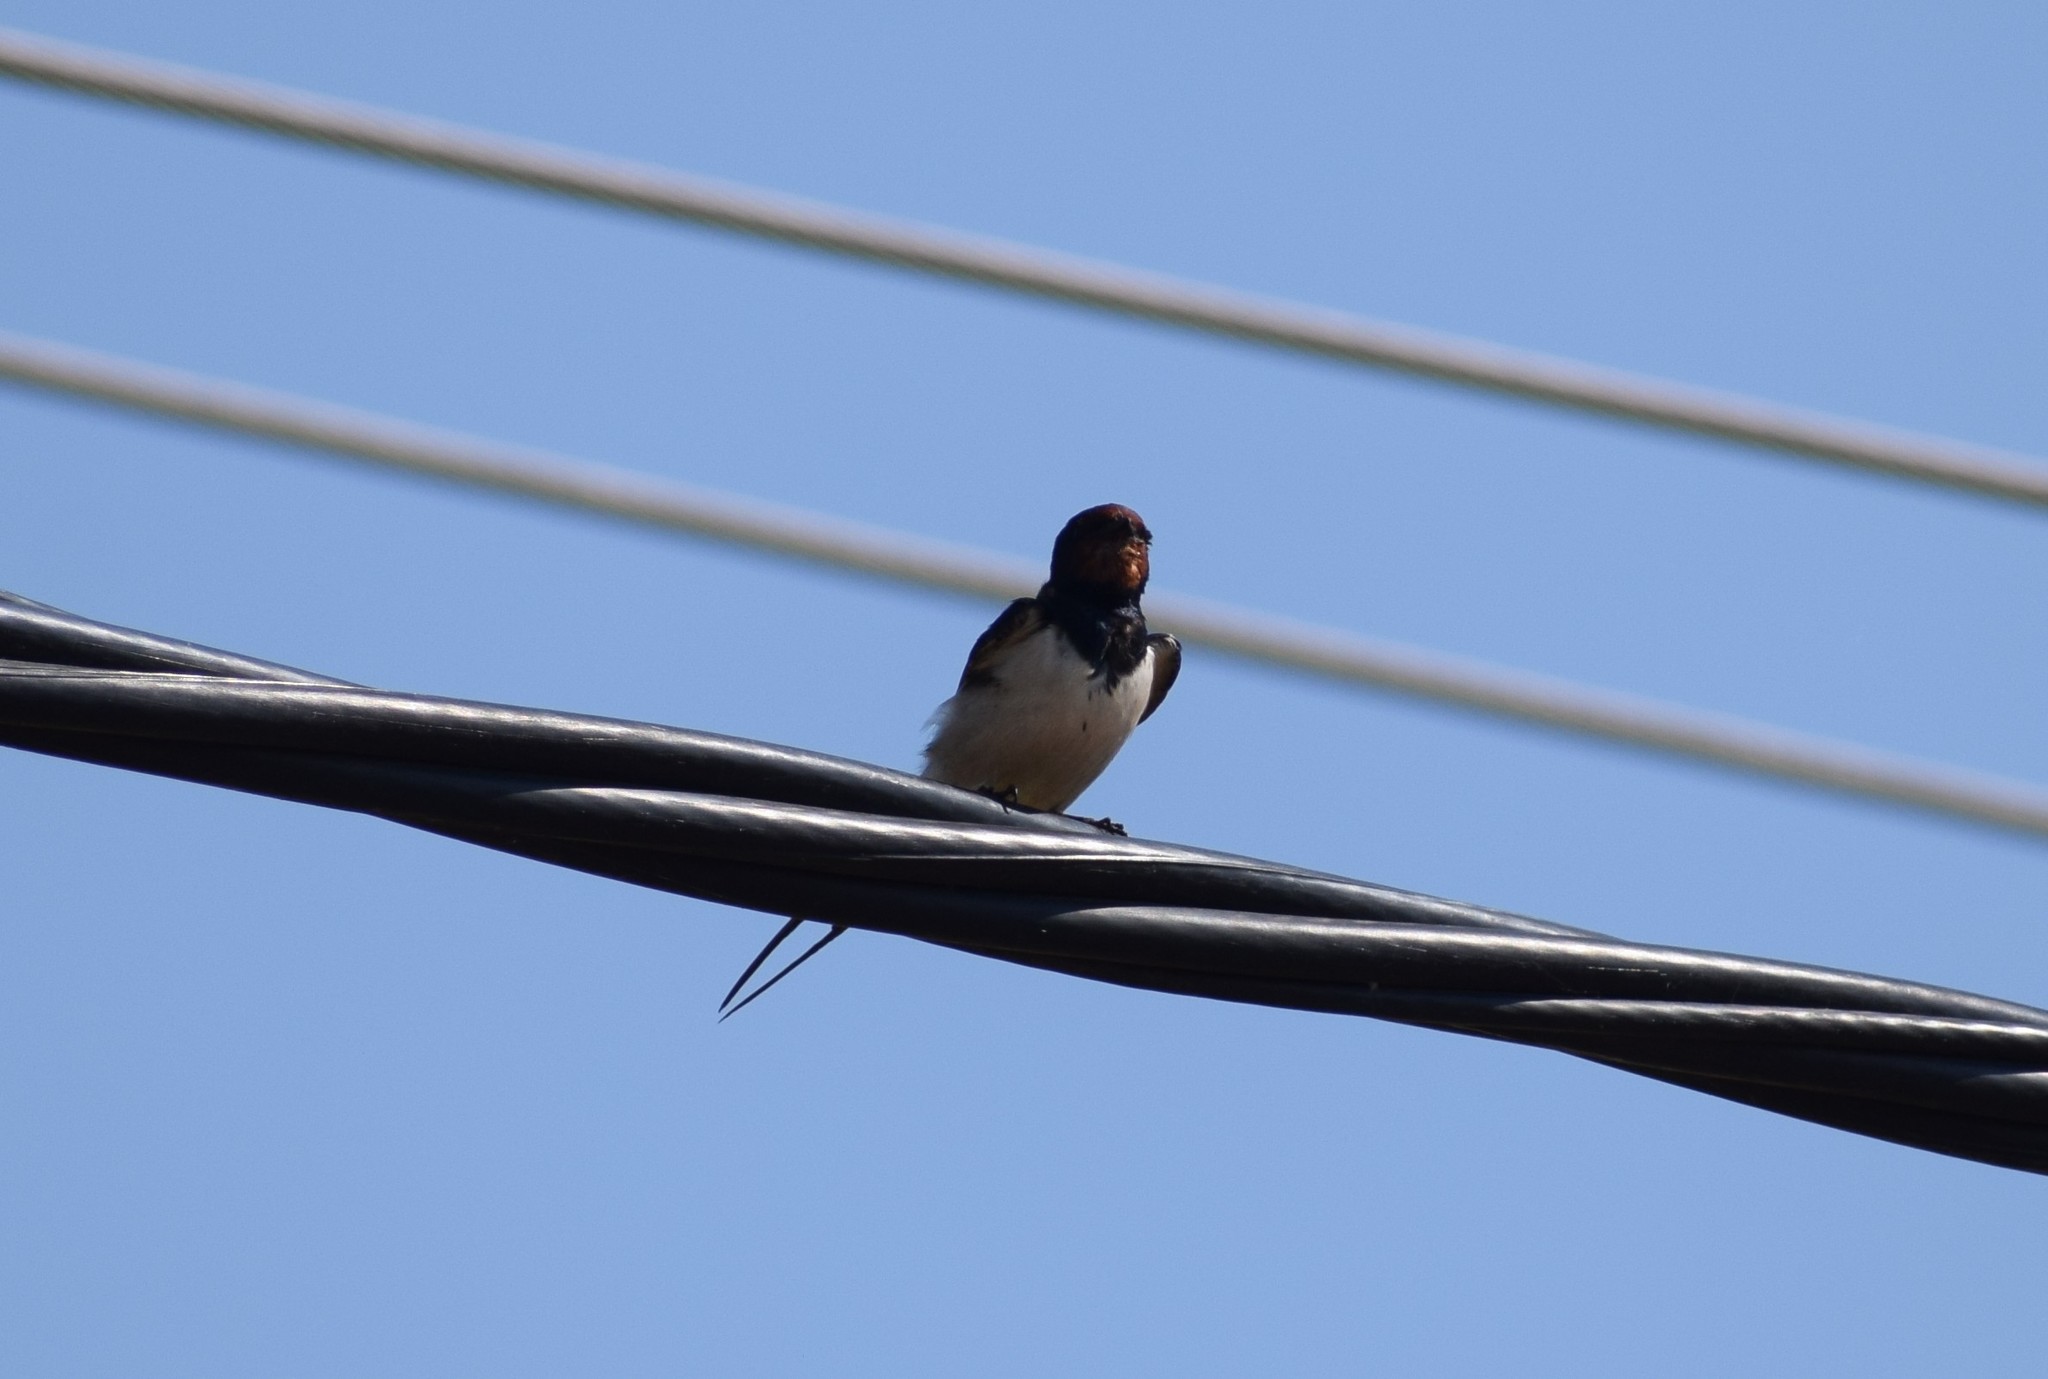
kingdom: Animalia
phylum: Chordata
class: Aves
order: Passeriformes
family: Hirundinidae
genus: Hirundo
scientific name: Hirundo rustica
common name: Barn swallow
